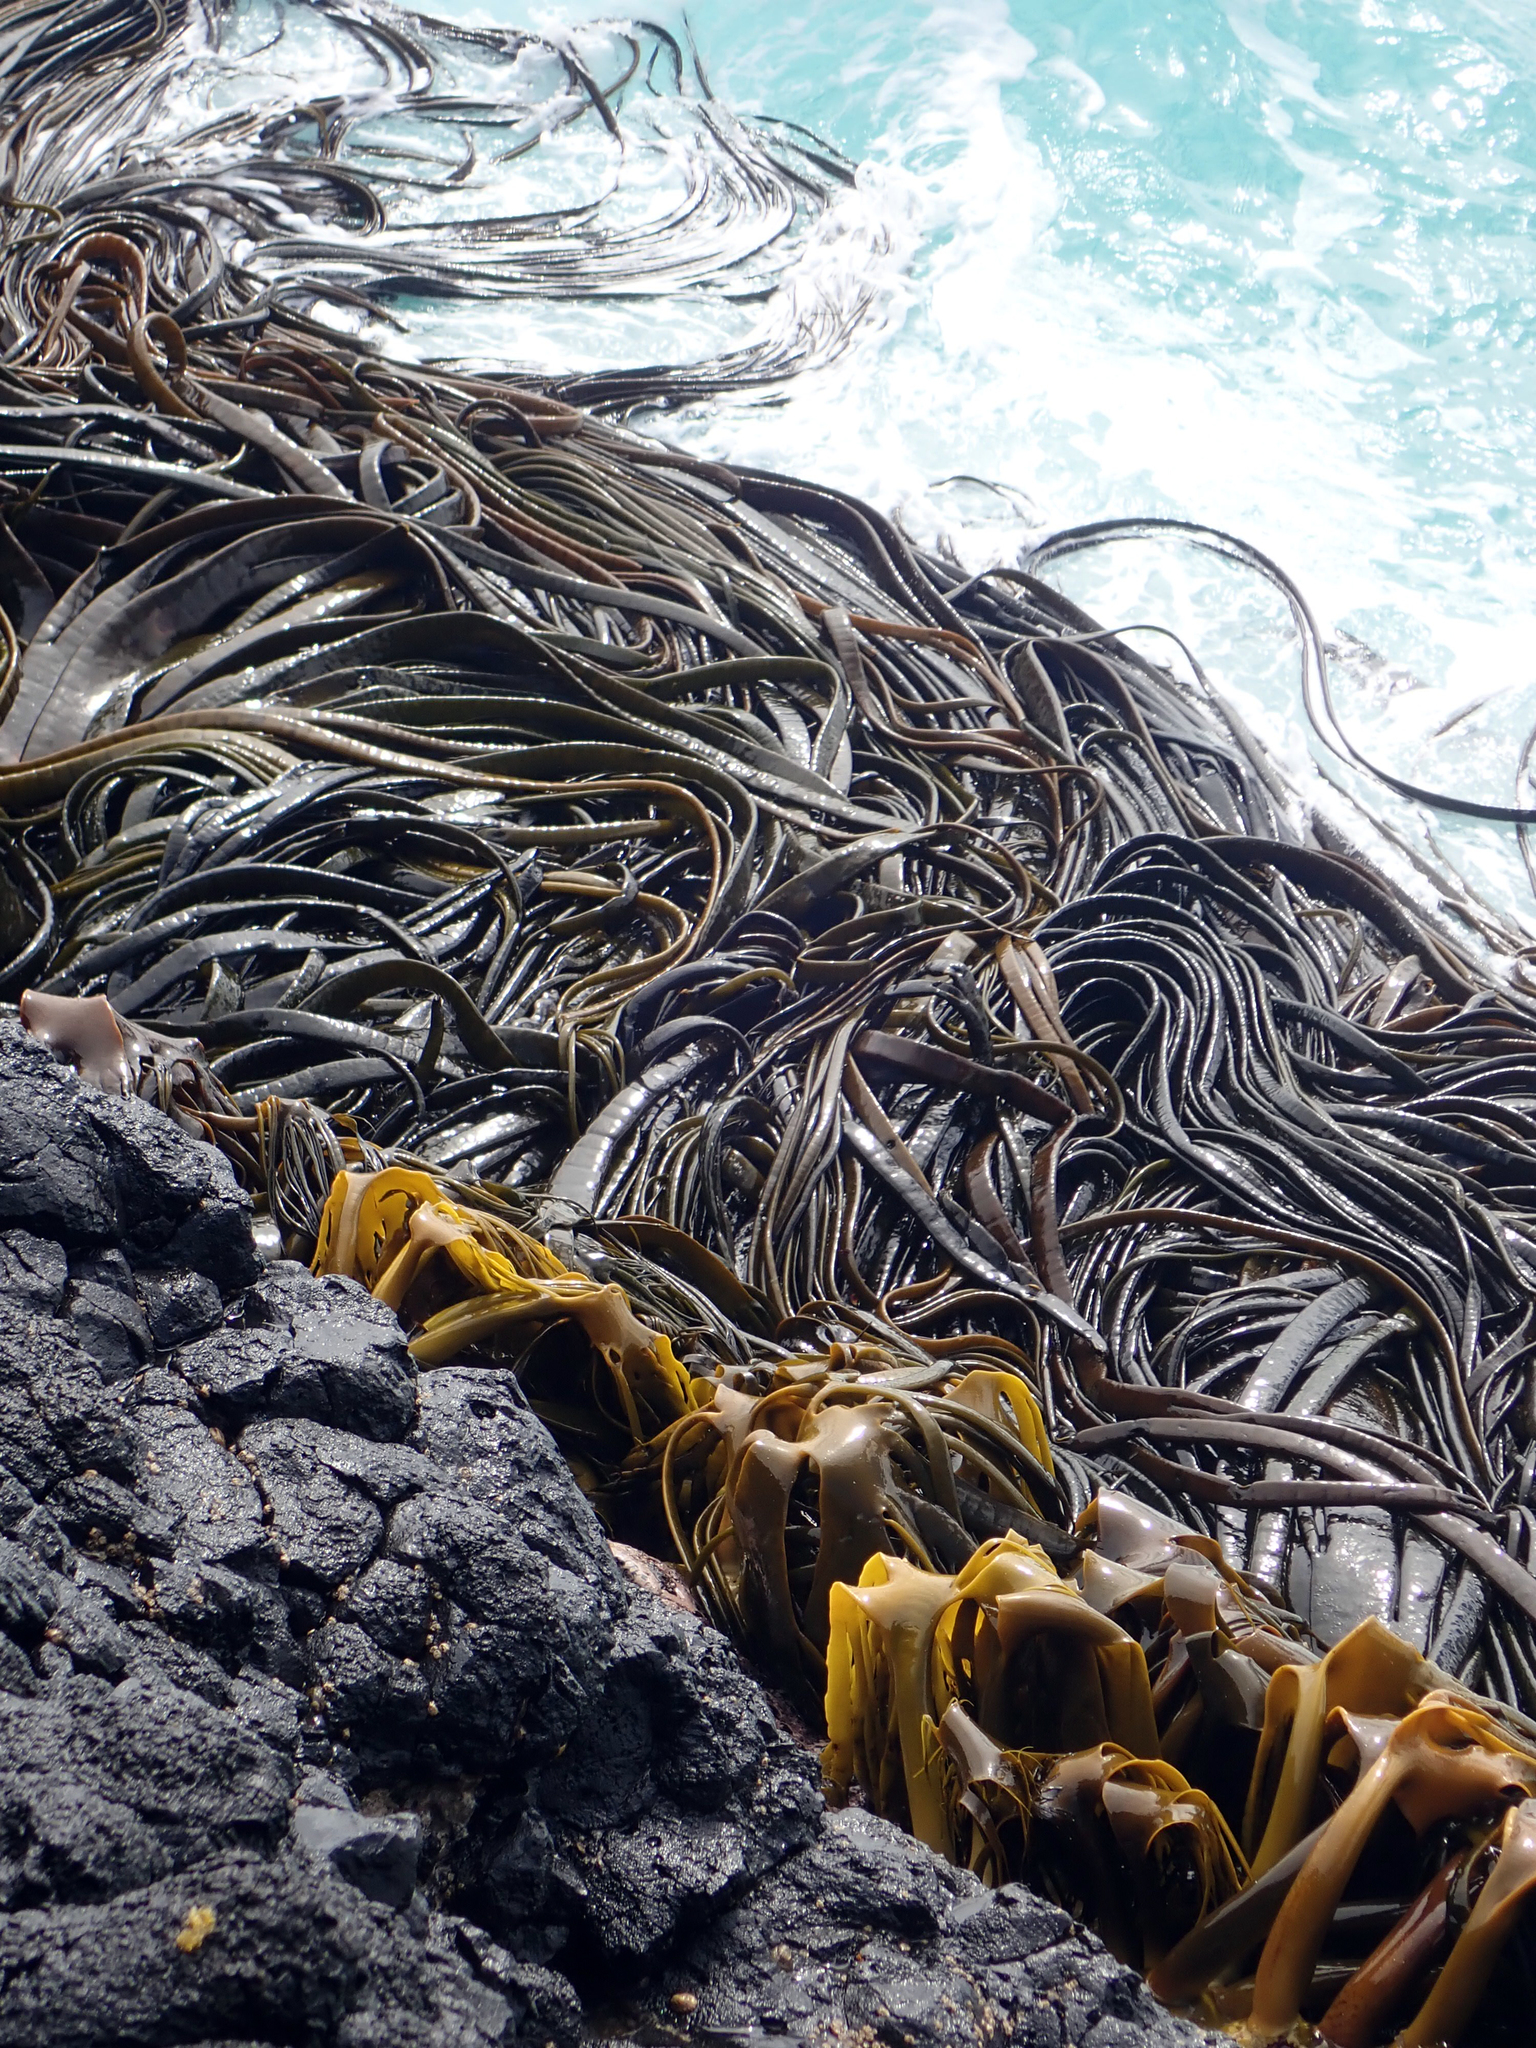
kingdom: Chromista
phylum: Ochrophyta
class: Phaeophyceae
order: Fucales
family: Durvillaeaceae
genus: Durvillaea
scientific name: Durvillaea antarctica
